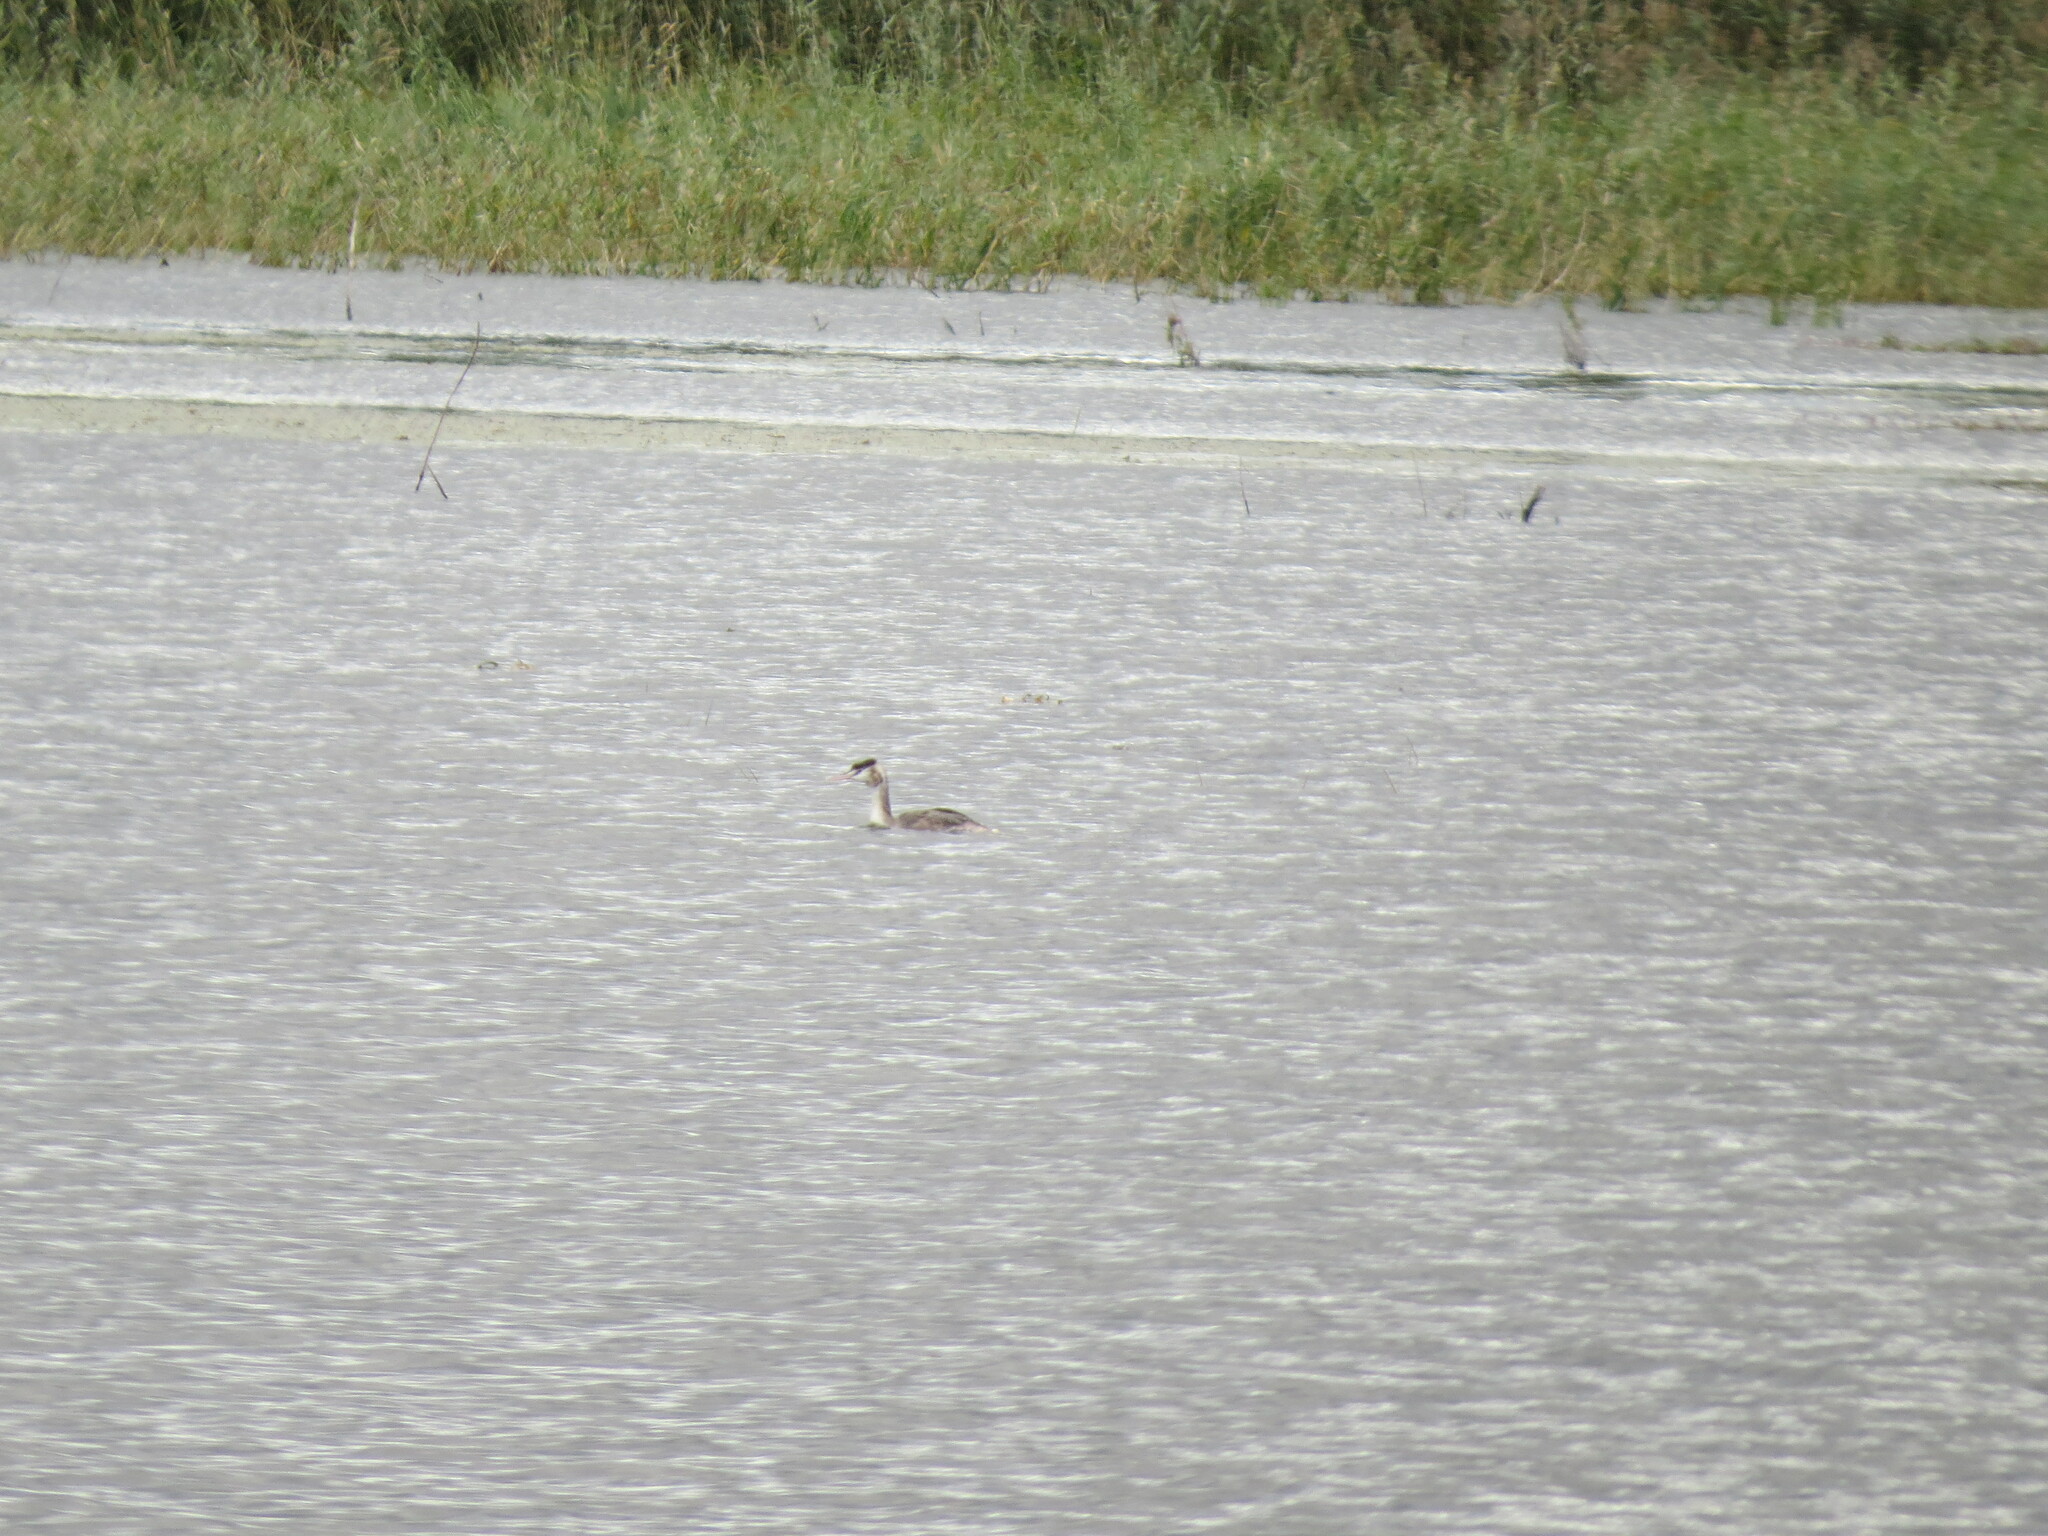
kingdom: Animalia
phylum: Chordata
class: Aves
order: Podicipediformes
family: Podicipedidae
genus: Podiceps
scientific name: Podiceps cristatus
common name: Great crested grebe
